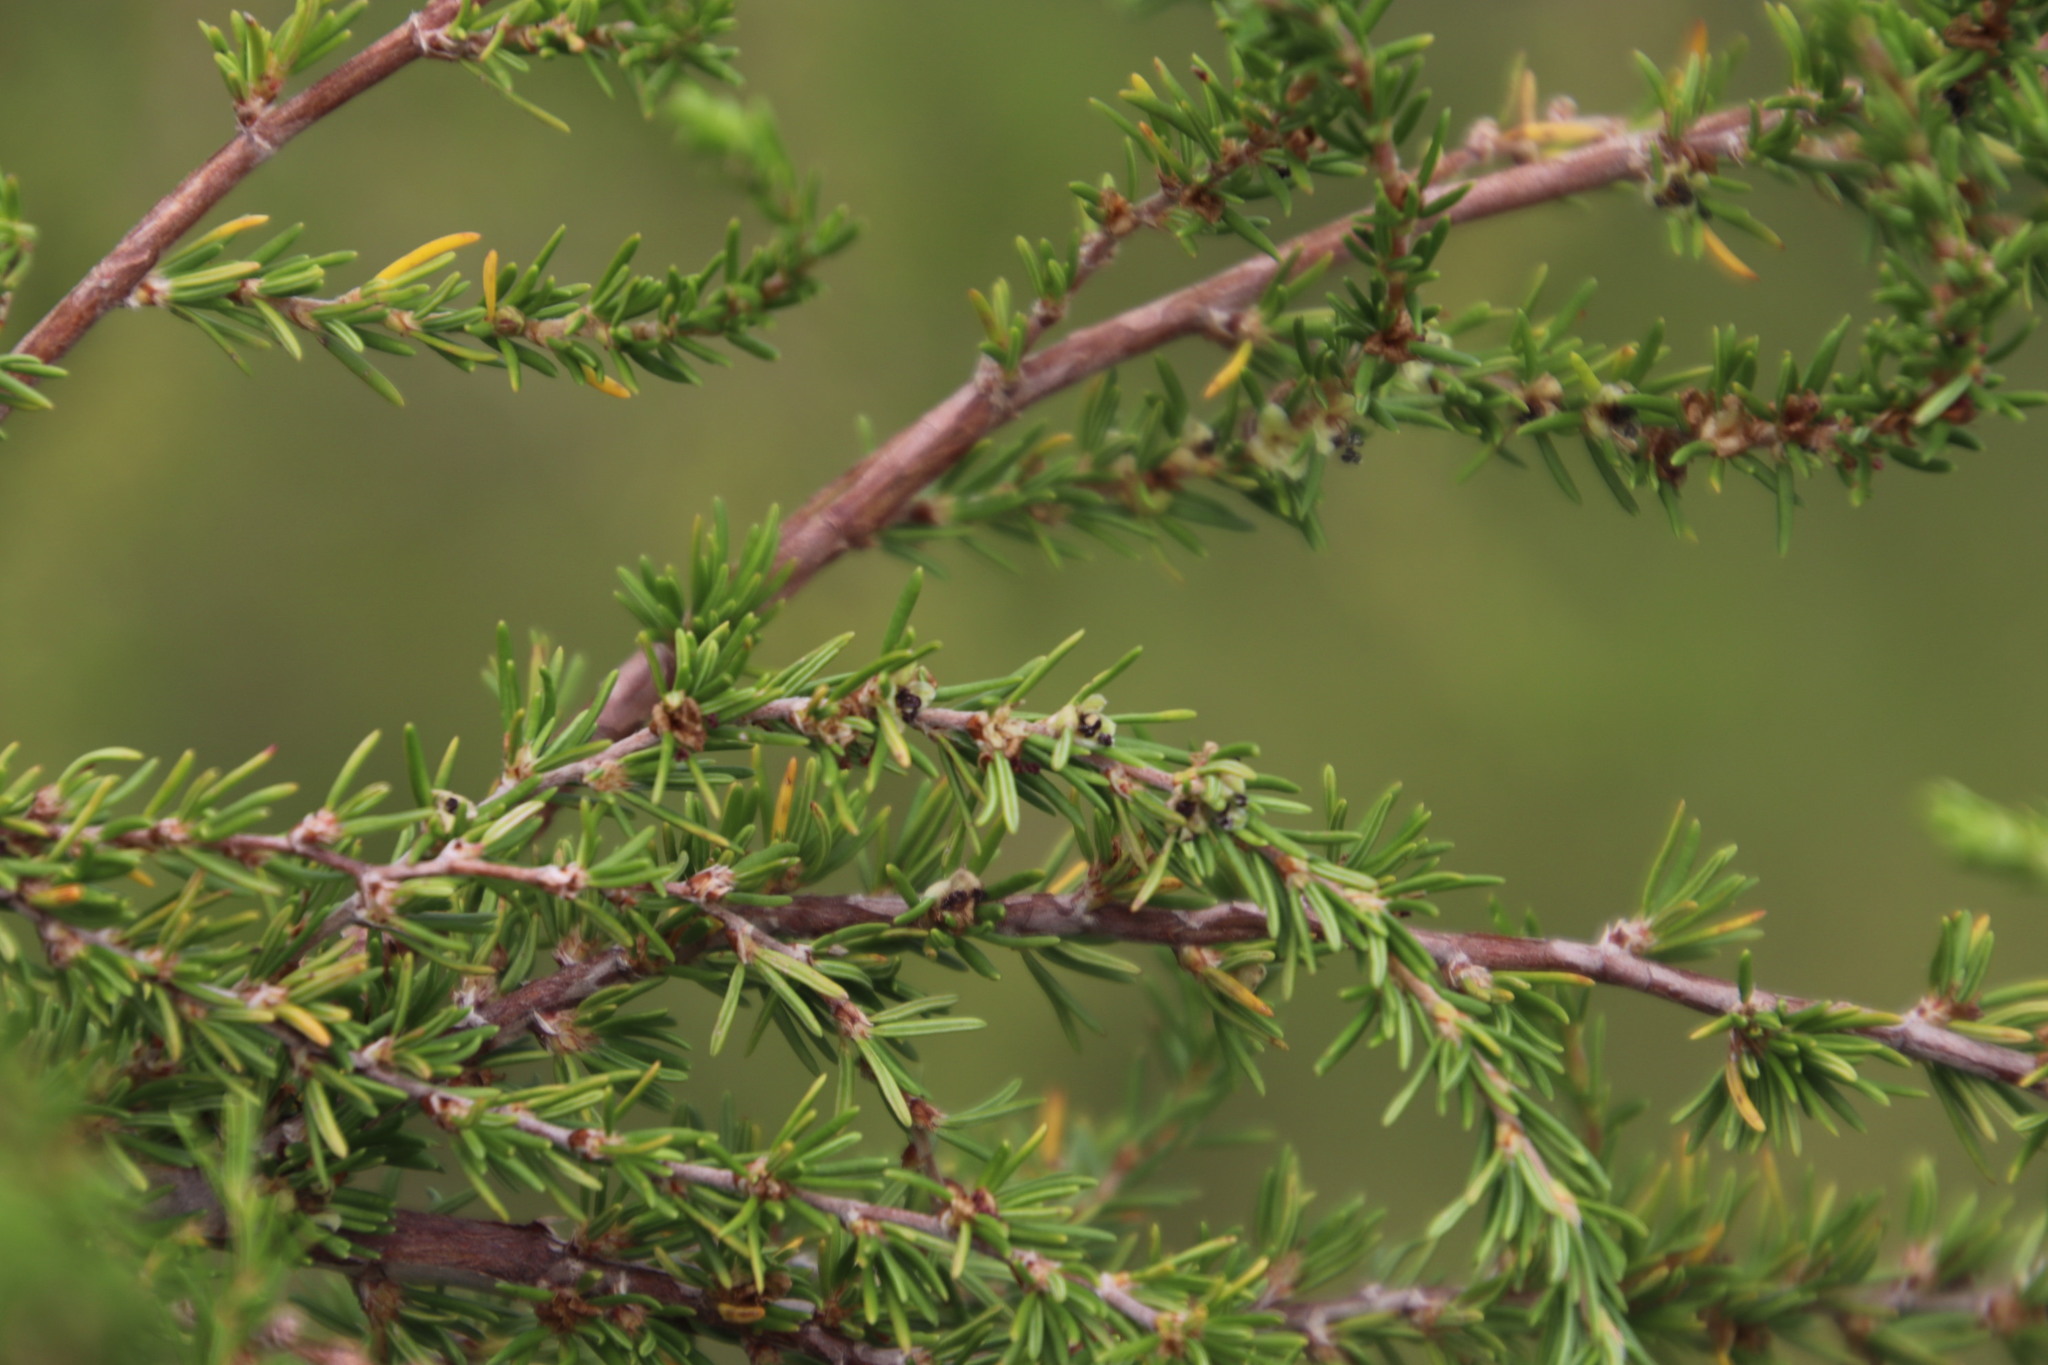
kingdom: Plantae
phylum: Tracheophyta
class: Magnoliopsida
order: Rosales
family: Rosaceae
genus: Cliffortia
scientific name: Cliffortia linearifolia
